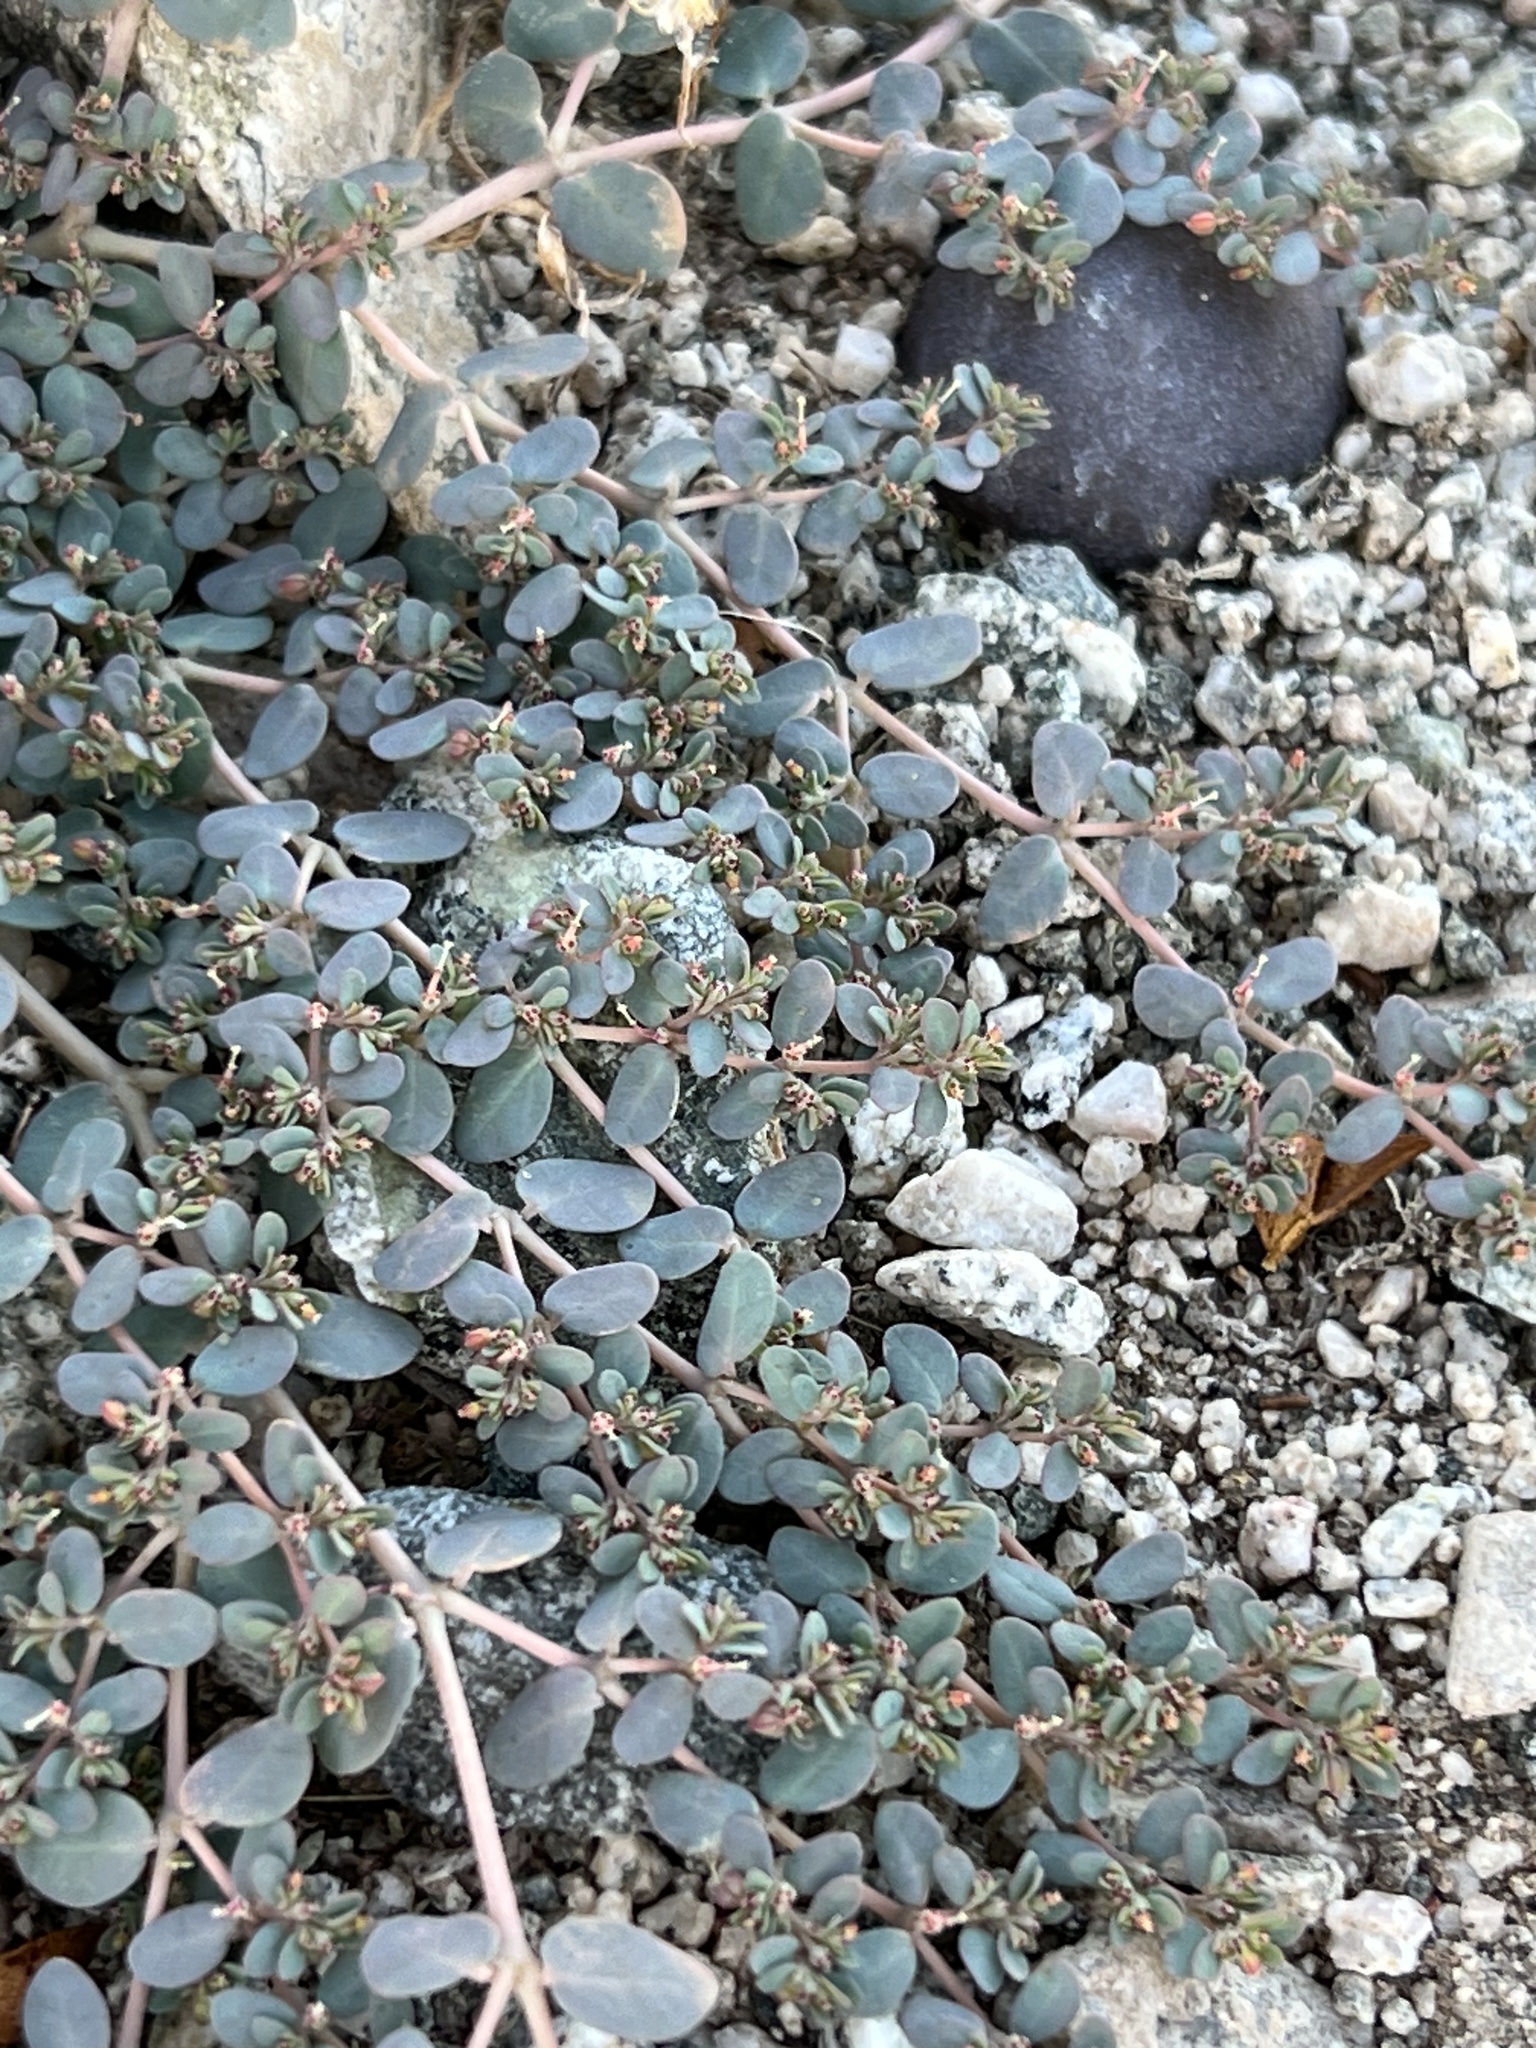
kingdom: Plantae
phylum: Tracheophyta
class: Magnoliopsida
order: Malpighiales
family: Euphorbiaceae
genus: Euphorbia
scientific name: Euphorbia micromera
